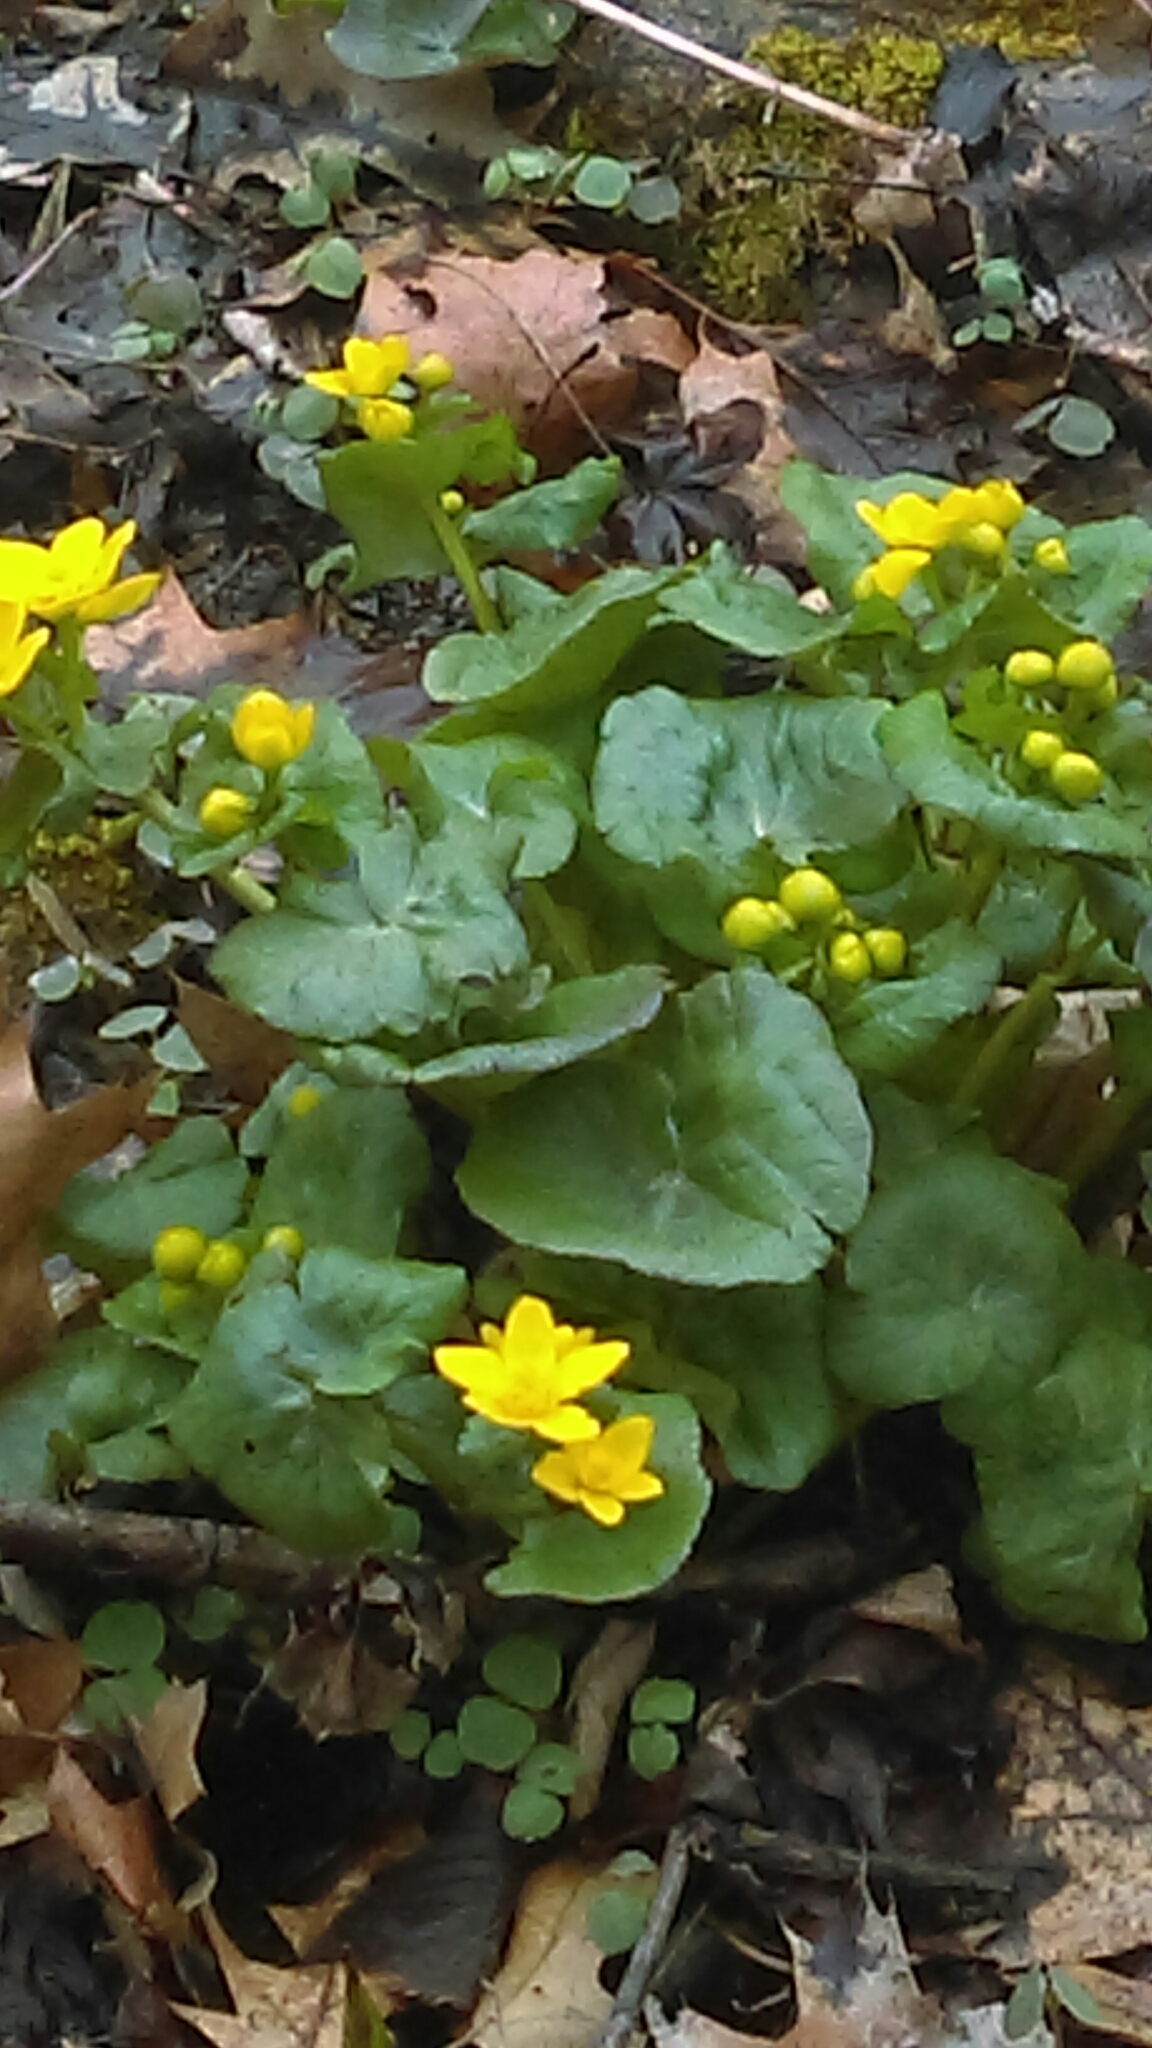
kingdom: Plantae
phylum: Tracheophyta
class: Magnoliopsida
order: Ranunculales
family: Ranunculaceae
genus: Caltha
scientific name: Caltha palustris
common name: Marsh marigold
